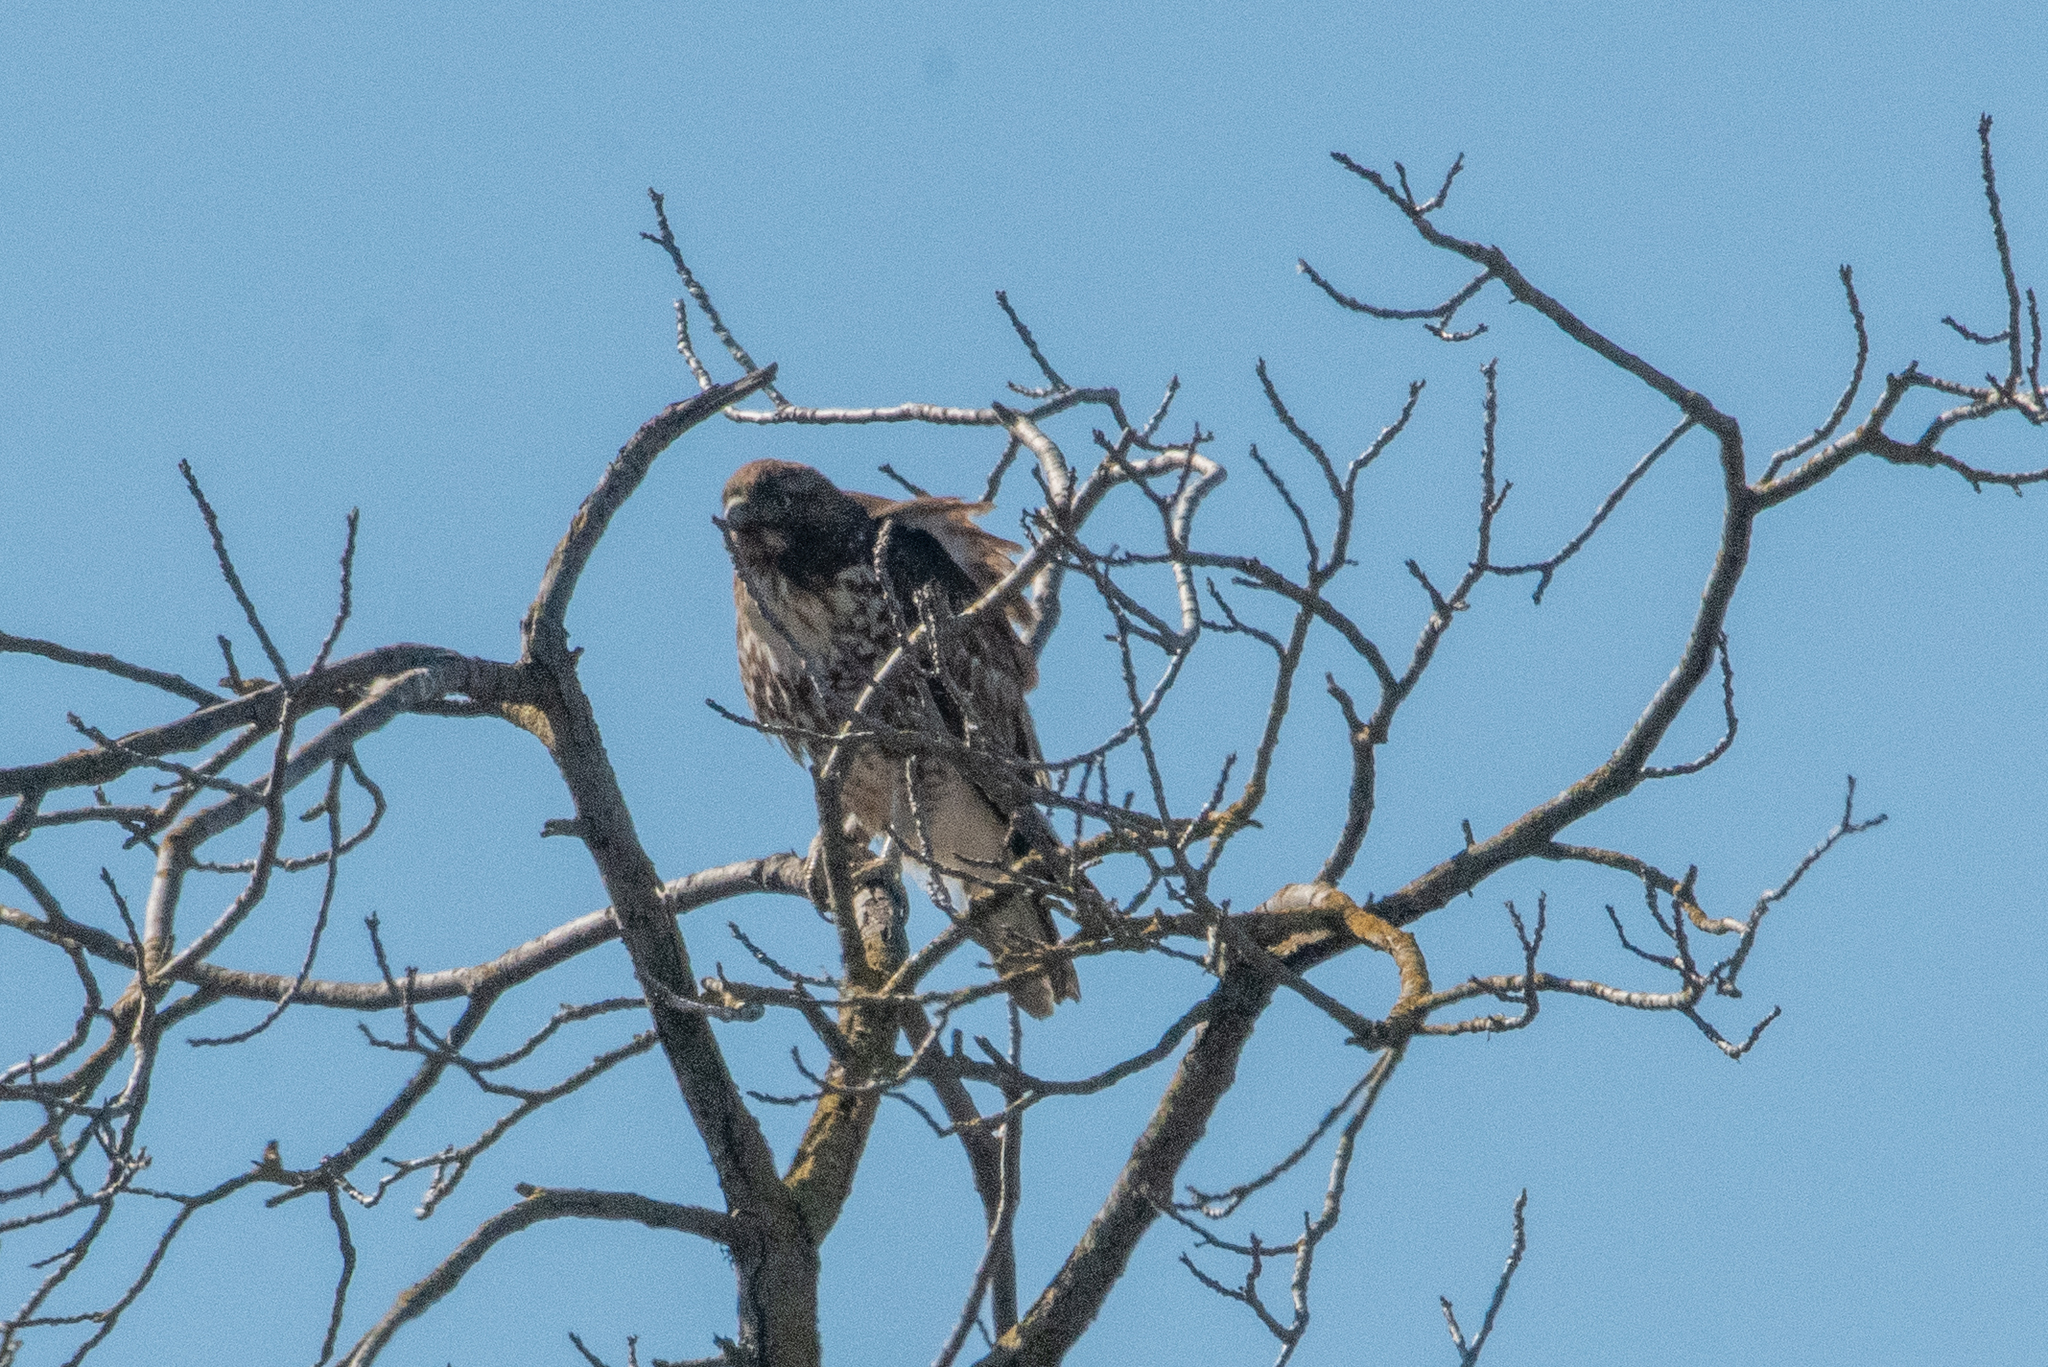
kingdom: Animalia
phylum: Chordata
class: Aves
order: Accipitriformes
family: Accipitridae
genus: Buteo
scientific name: Buteo jamaicensis
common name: Red-tailed hawk
